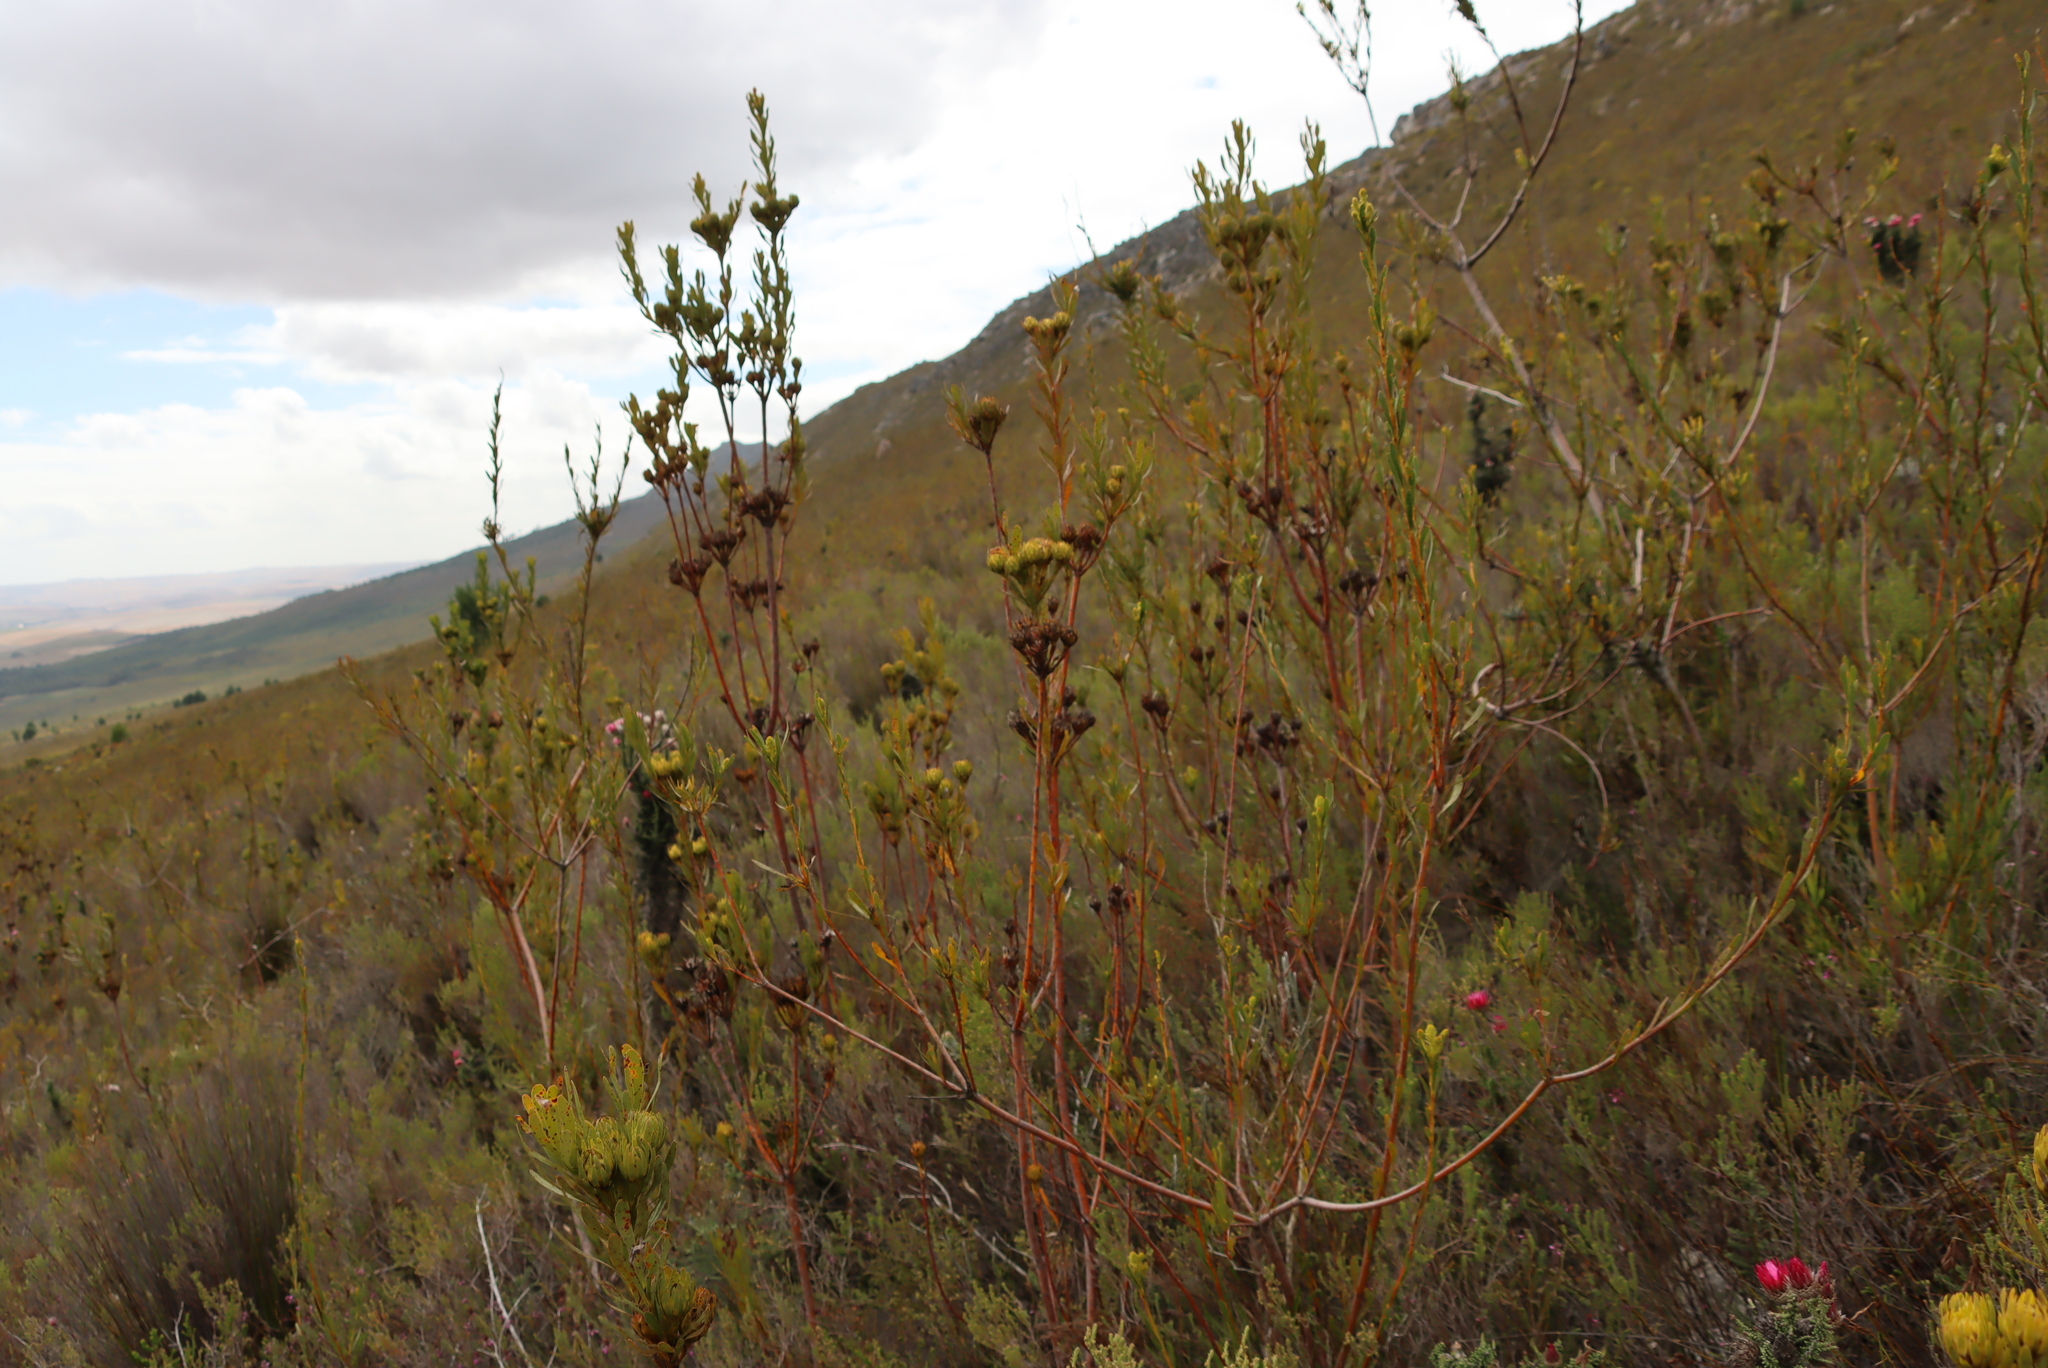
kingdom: Plantae
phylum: Tracheophyta
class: Magnoliopsida
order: Proteales
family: Proteaceae
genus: Aulax
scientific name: Aulax umbellata
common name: Broad-leaf featherbush
